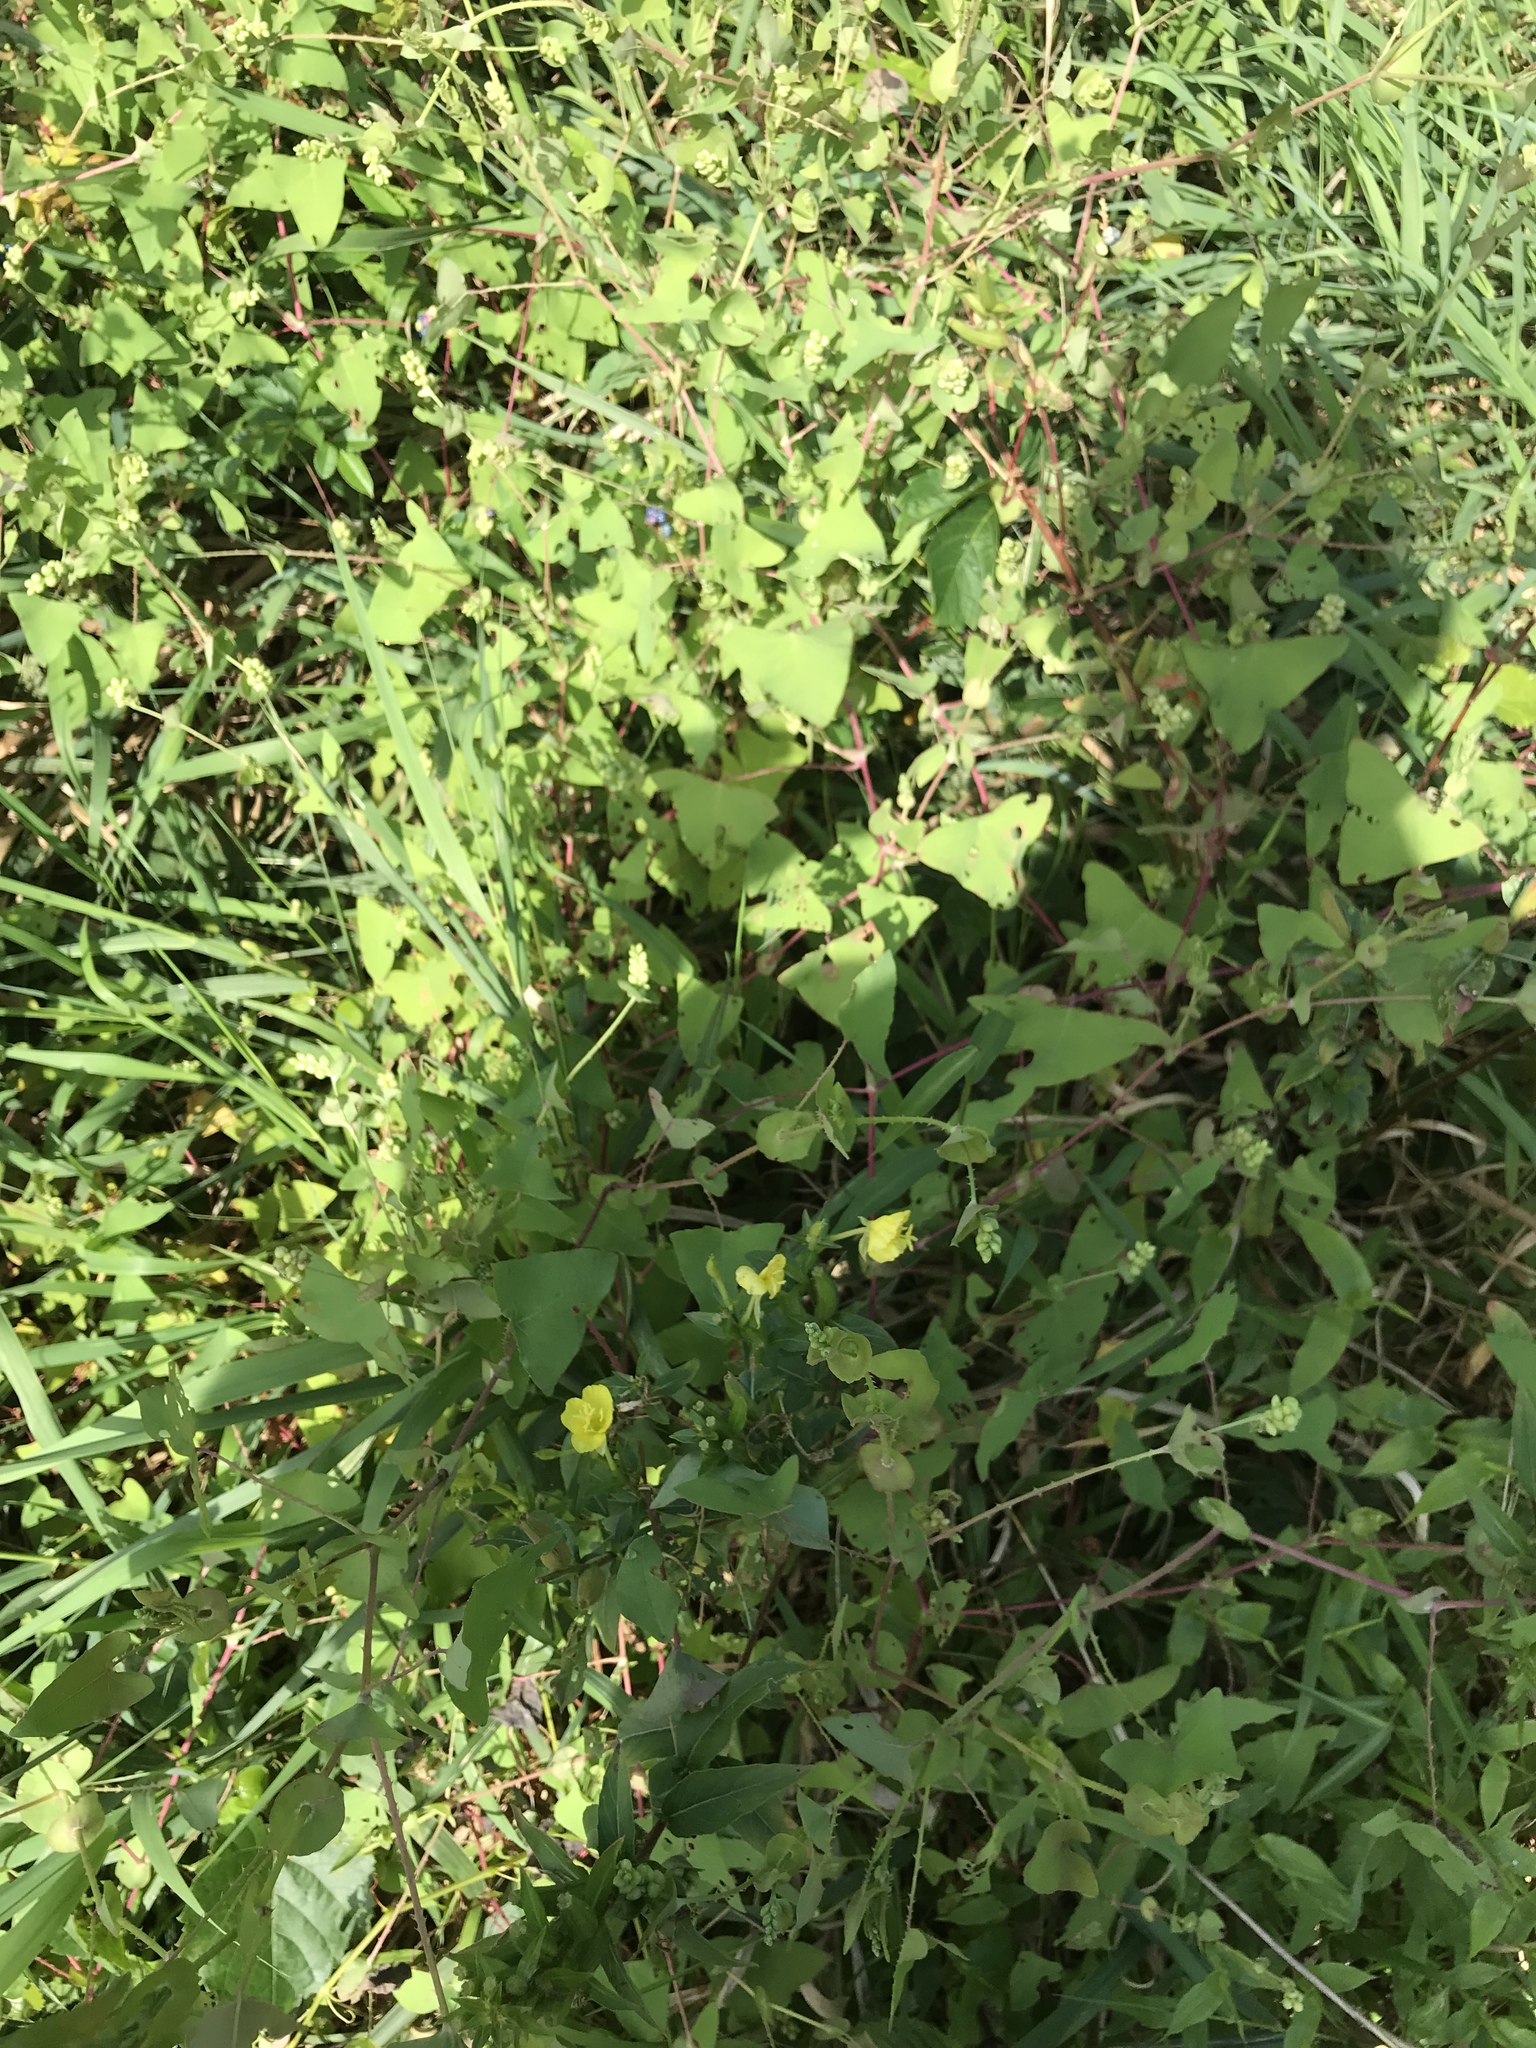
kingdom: Plantae
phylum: Tracheophyta
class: Magnoliopsida
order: Caryophyllales
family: Polygonaceae
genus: Persicaria
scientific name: Persicaria perfoliata
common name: Asiatic tearthumb
